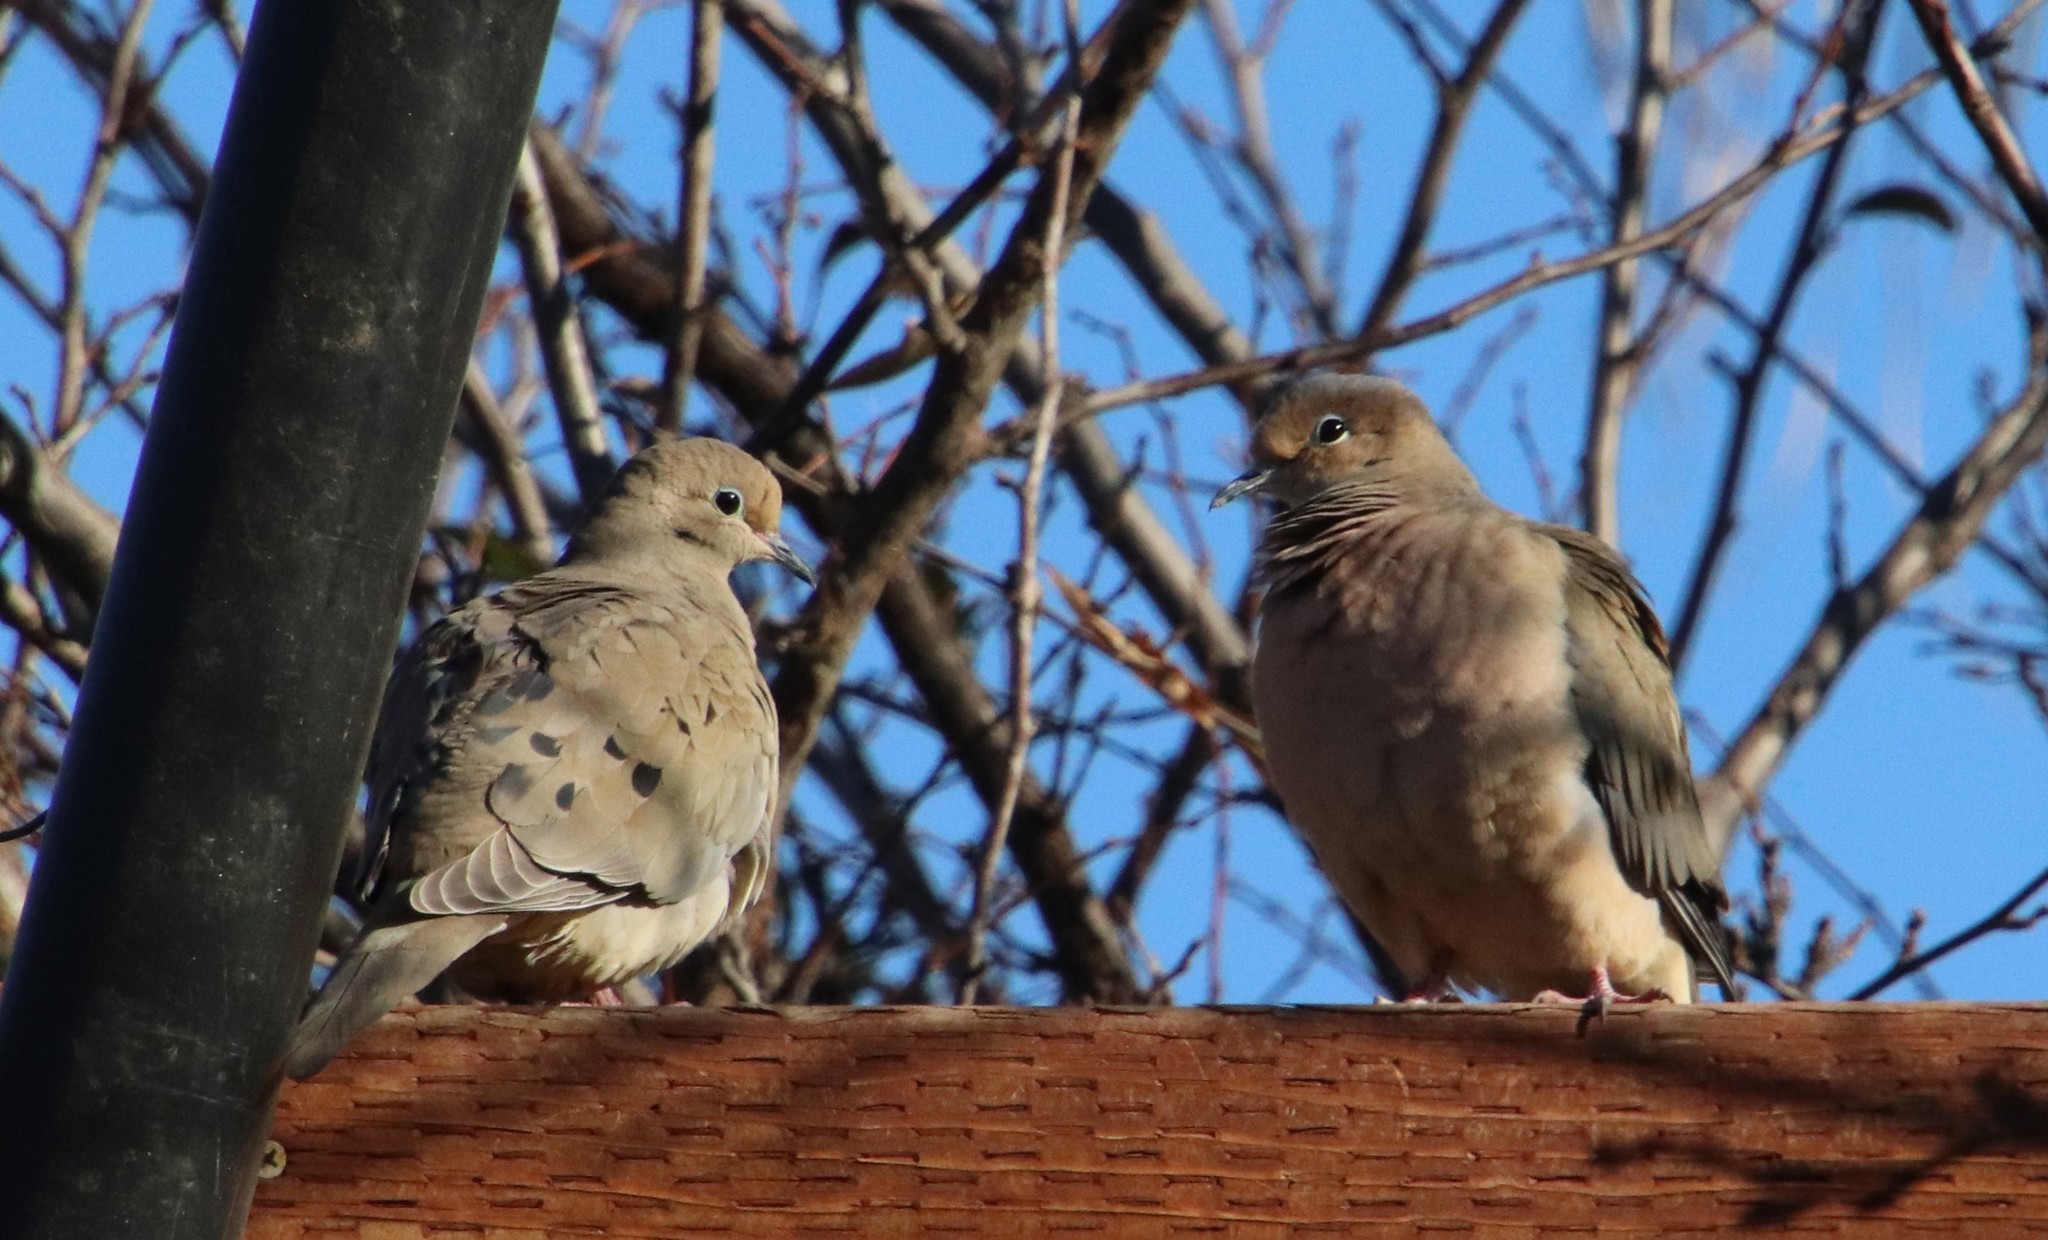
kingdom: Animalia
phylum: Chordata
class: Aves
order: Columbiformes
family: Columbidae
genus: Zenaida
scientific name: Zenaida macroura
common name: Mourning dove
